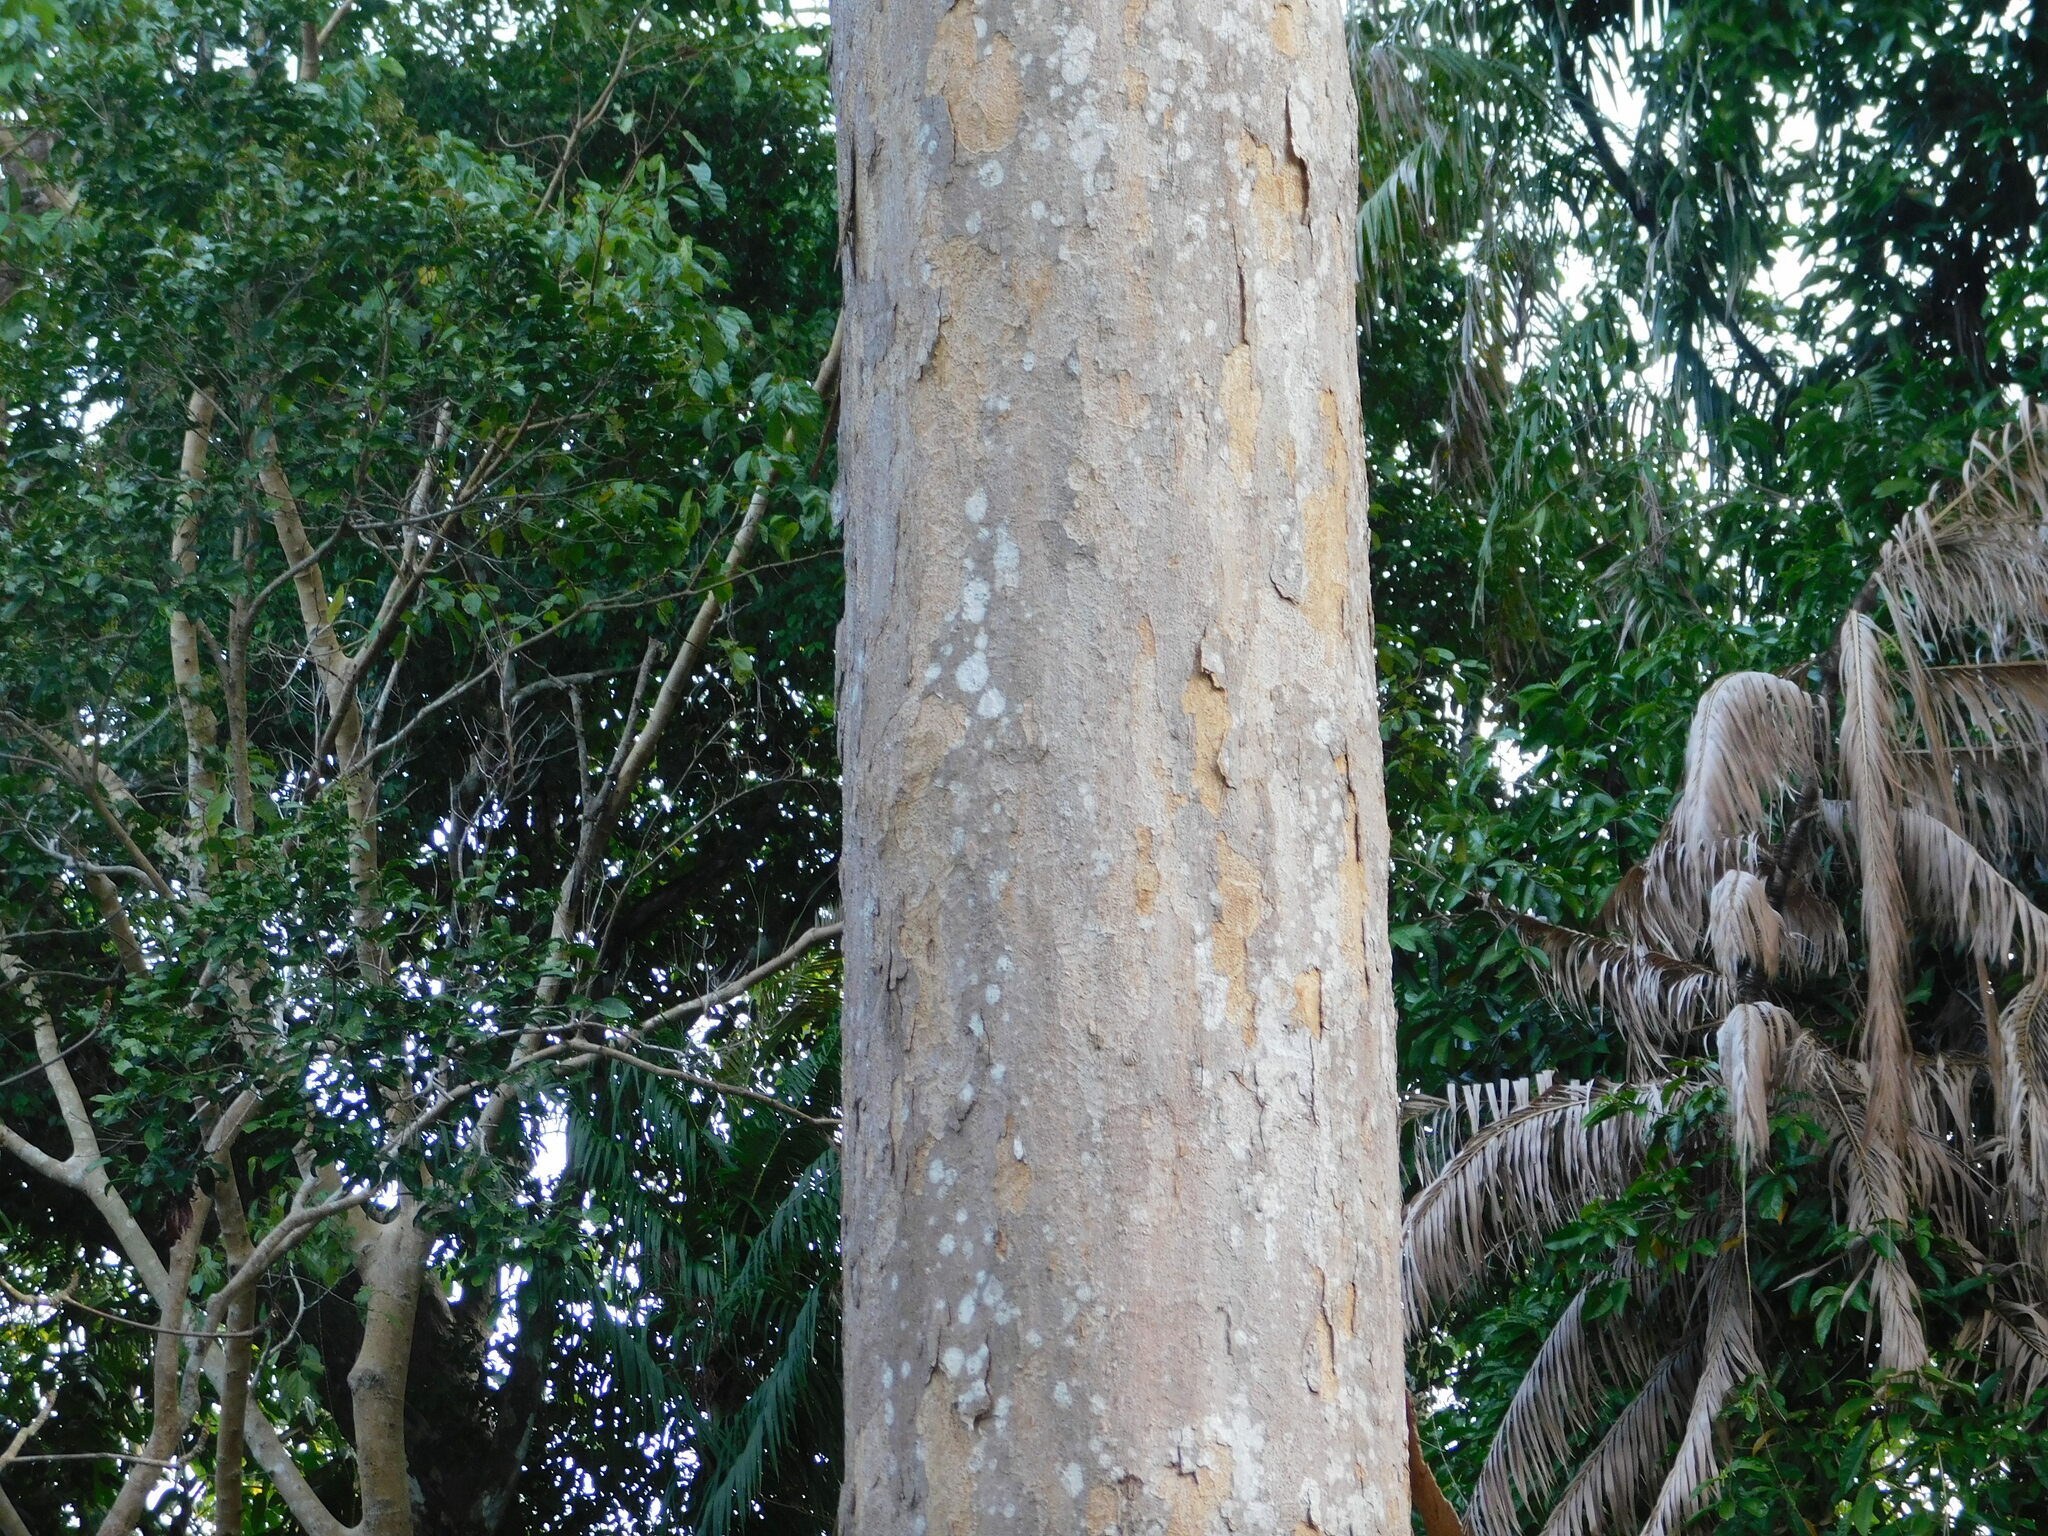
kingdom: Plantae
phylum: Tracheophyta
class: Magnoliopsida
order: Malvales
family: Dipterocarpaceae
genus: Dipterocarpus
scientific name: Dipterocarpus littoralis
